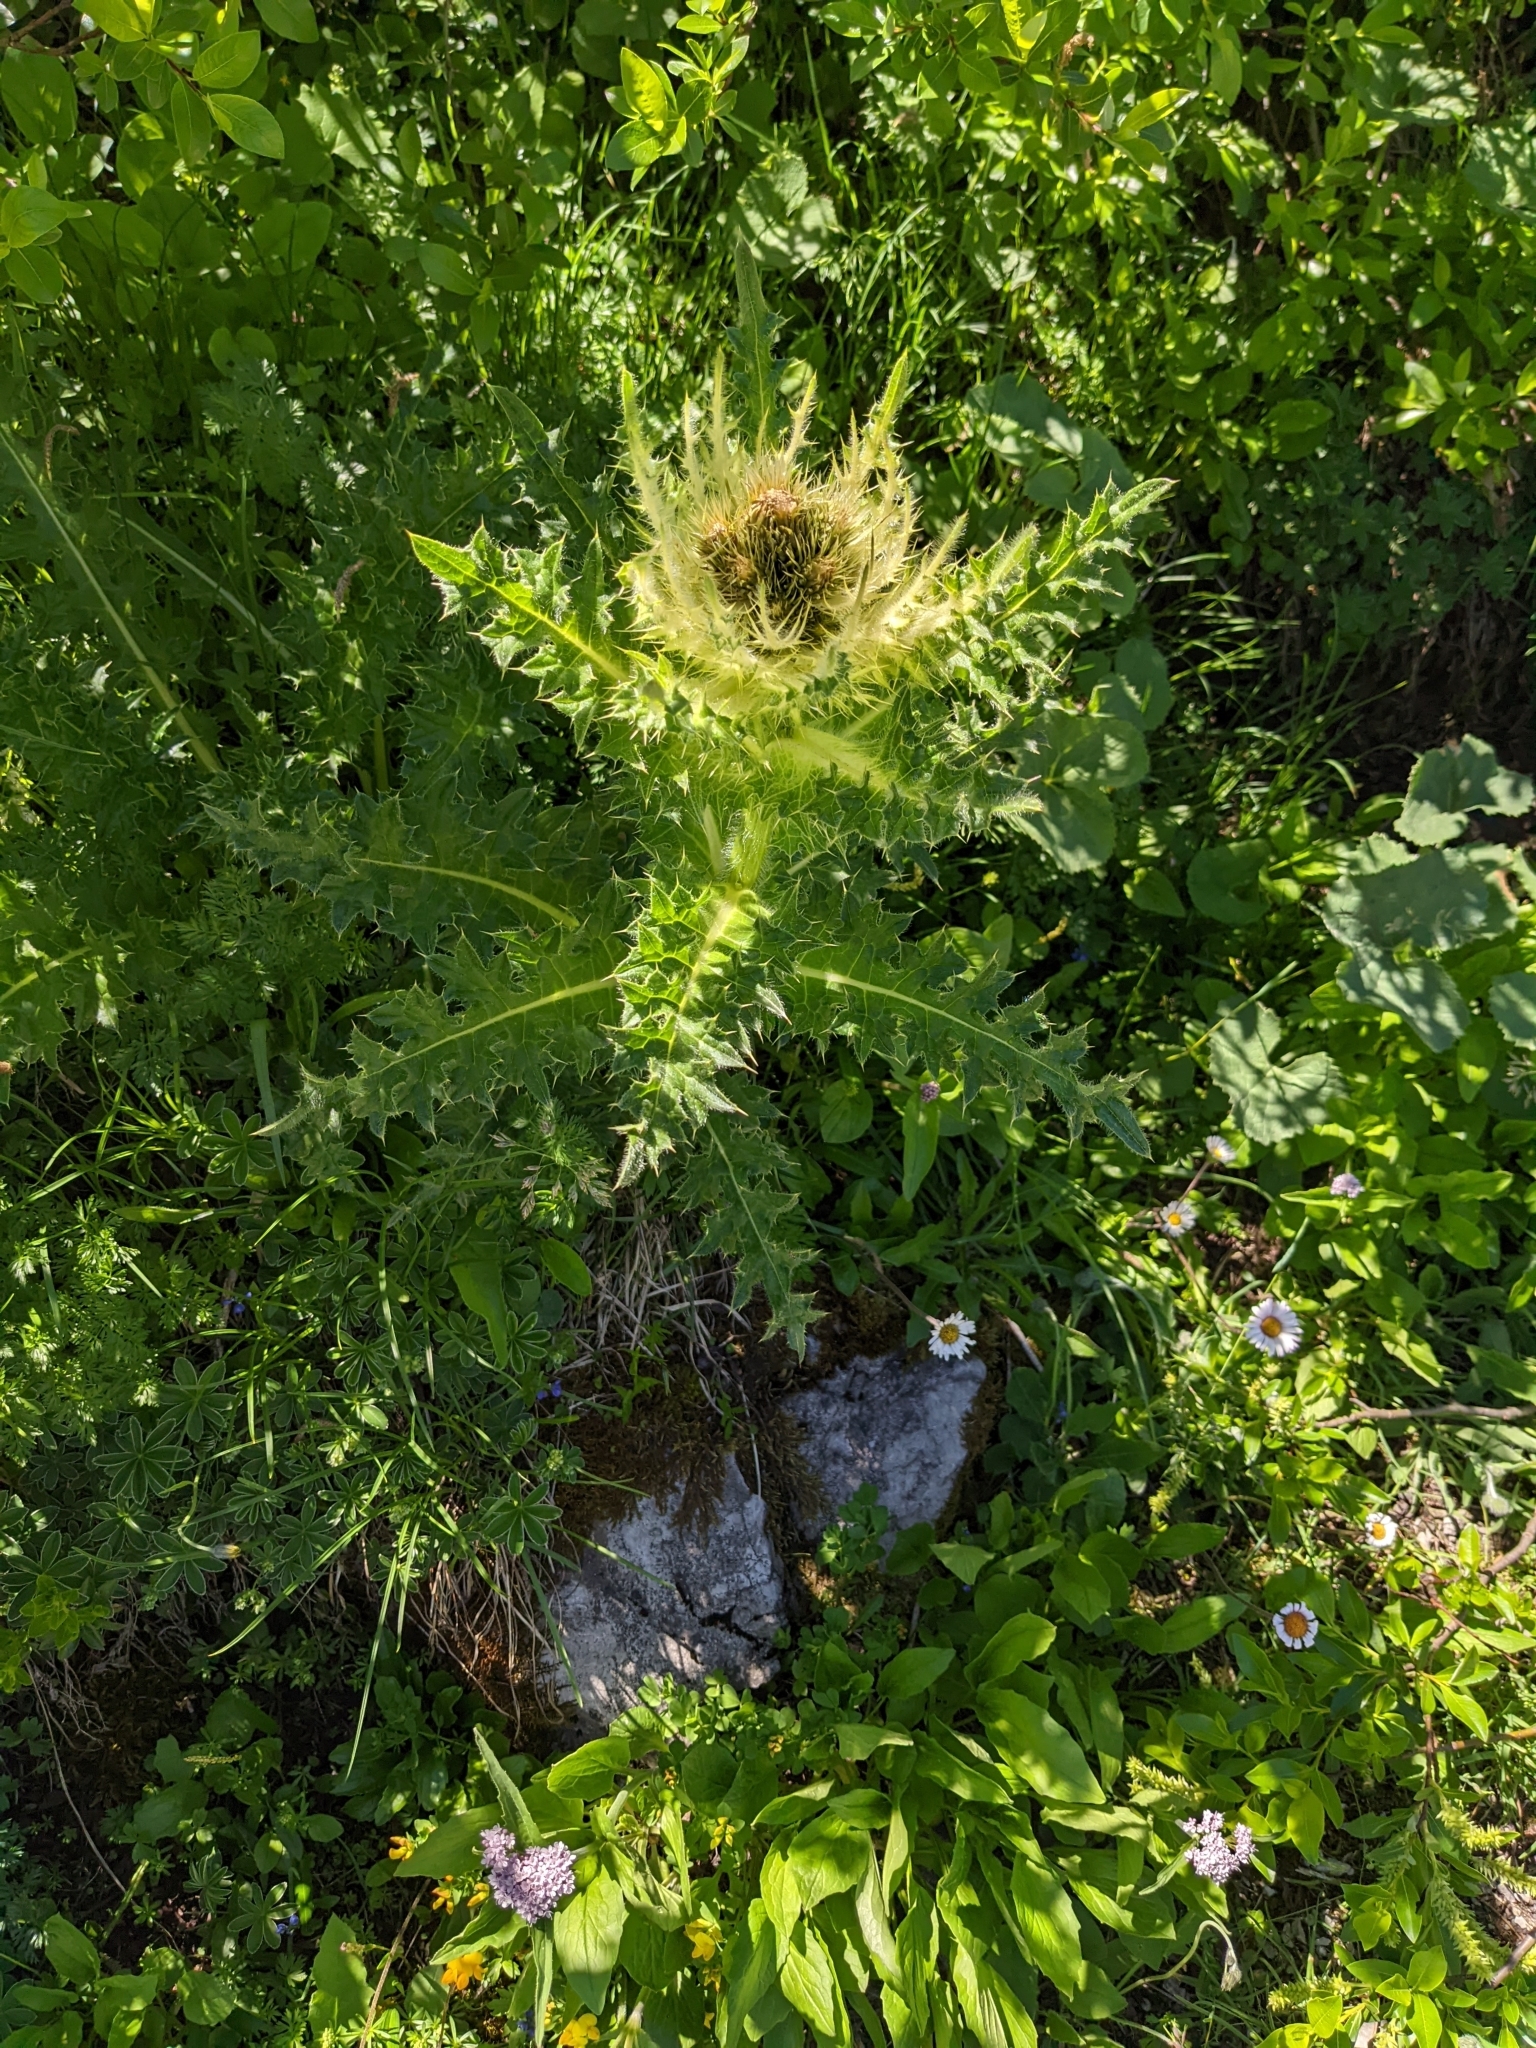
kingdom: Plantae
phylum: Tracheophyta
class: Magnoliopsida
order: Asterales
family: Asteraceae
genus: Cirsium
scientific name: Cirsium spinosissimum
